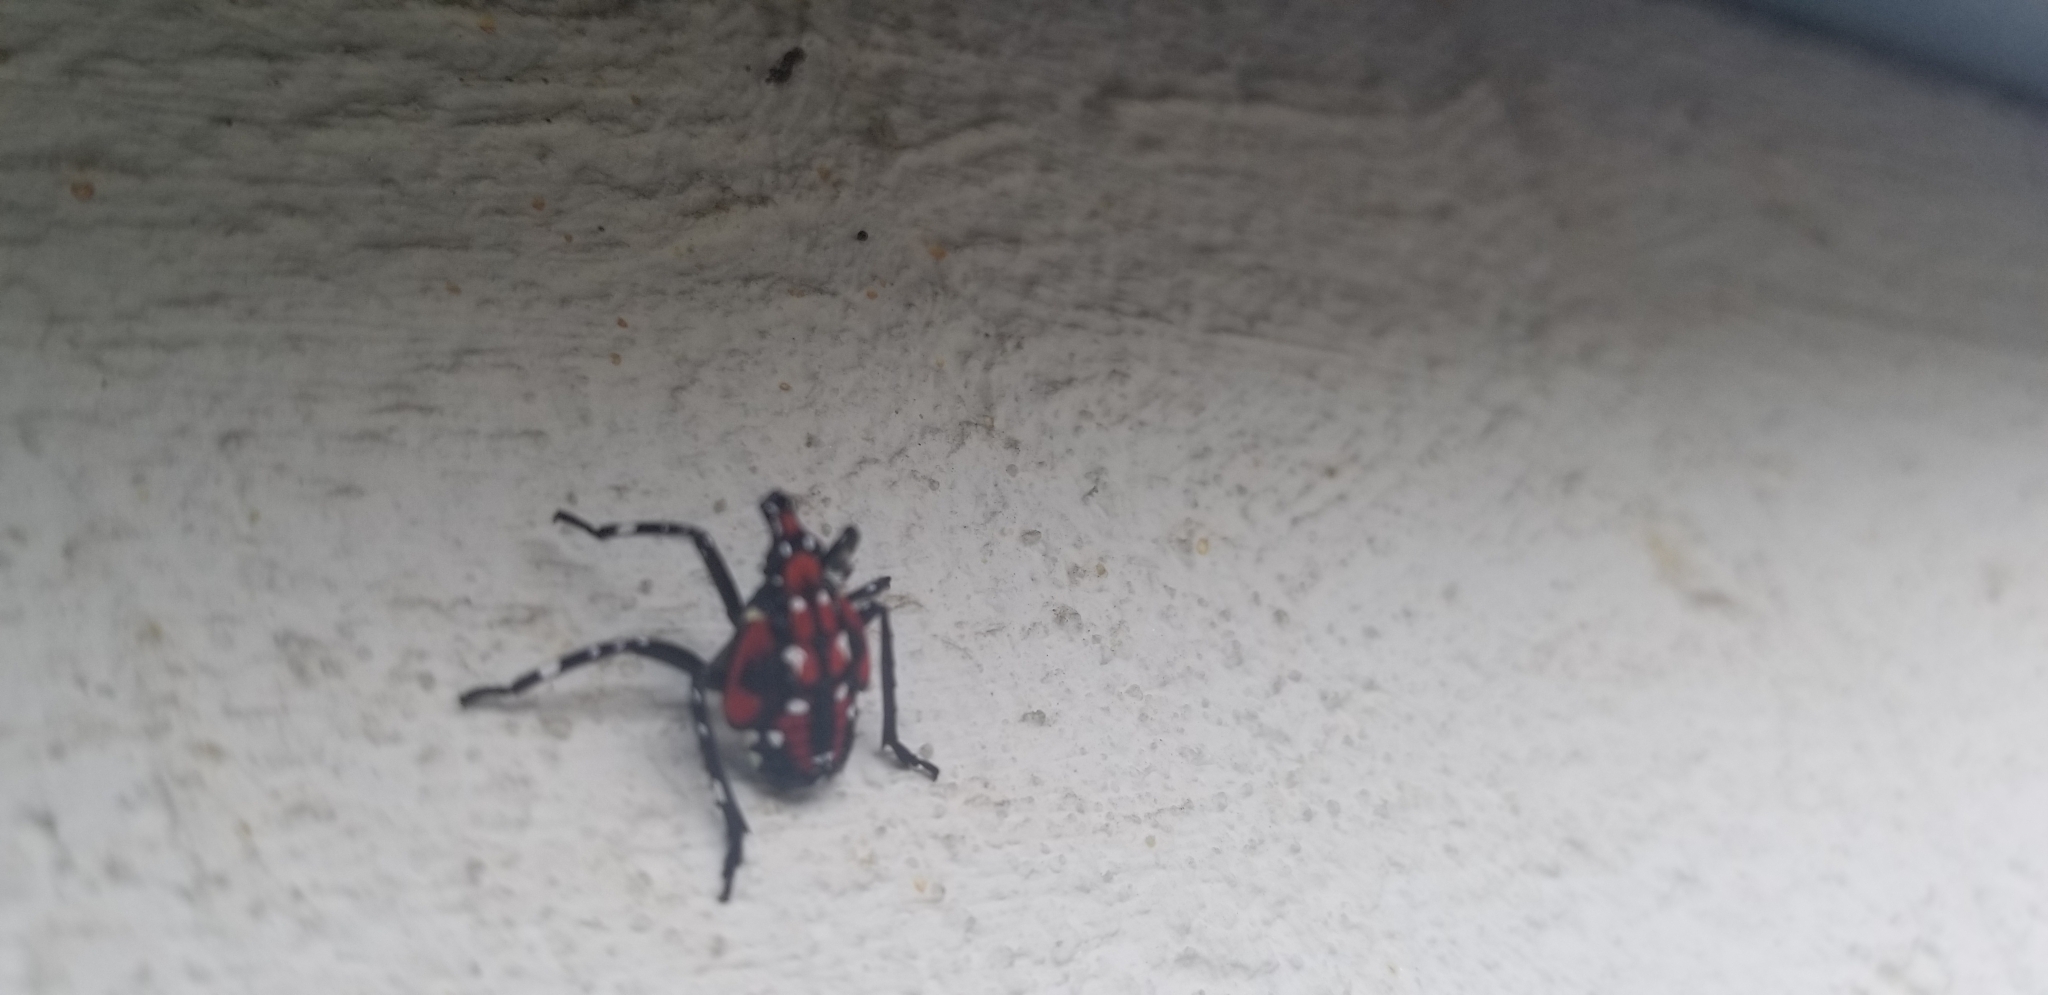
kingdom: Animalia
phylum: Arthropoda
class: Insecta
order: Hemiptera
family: Fulgoridae
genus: Lycorma
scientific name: Lycorma delicatula
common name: Spotted lanternfly
